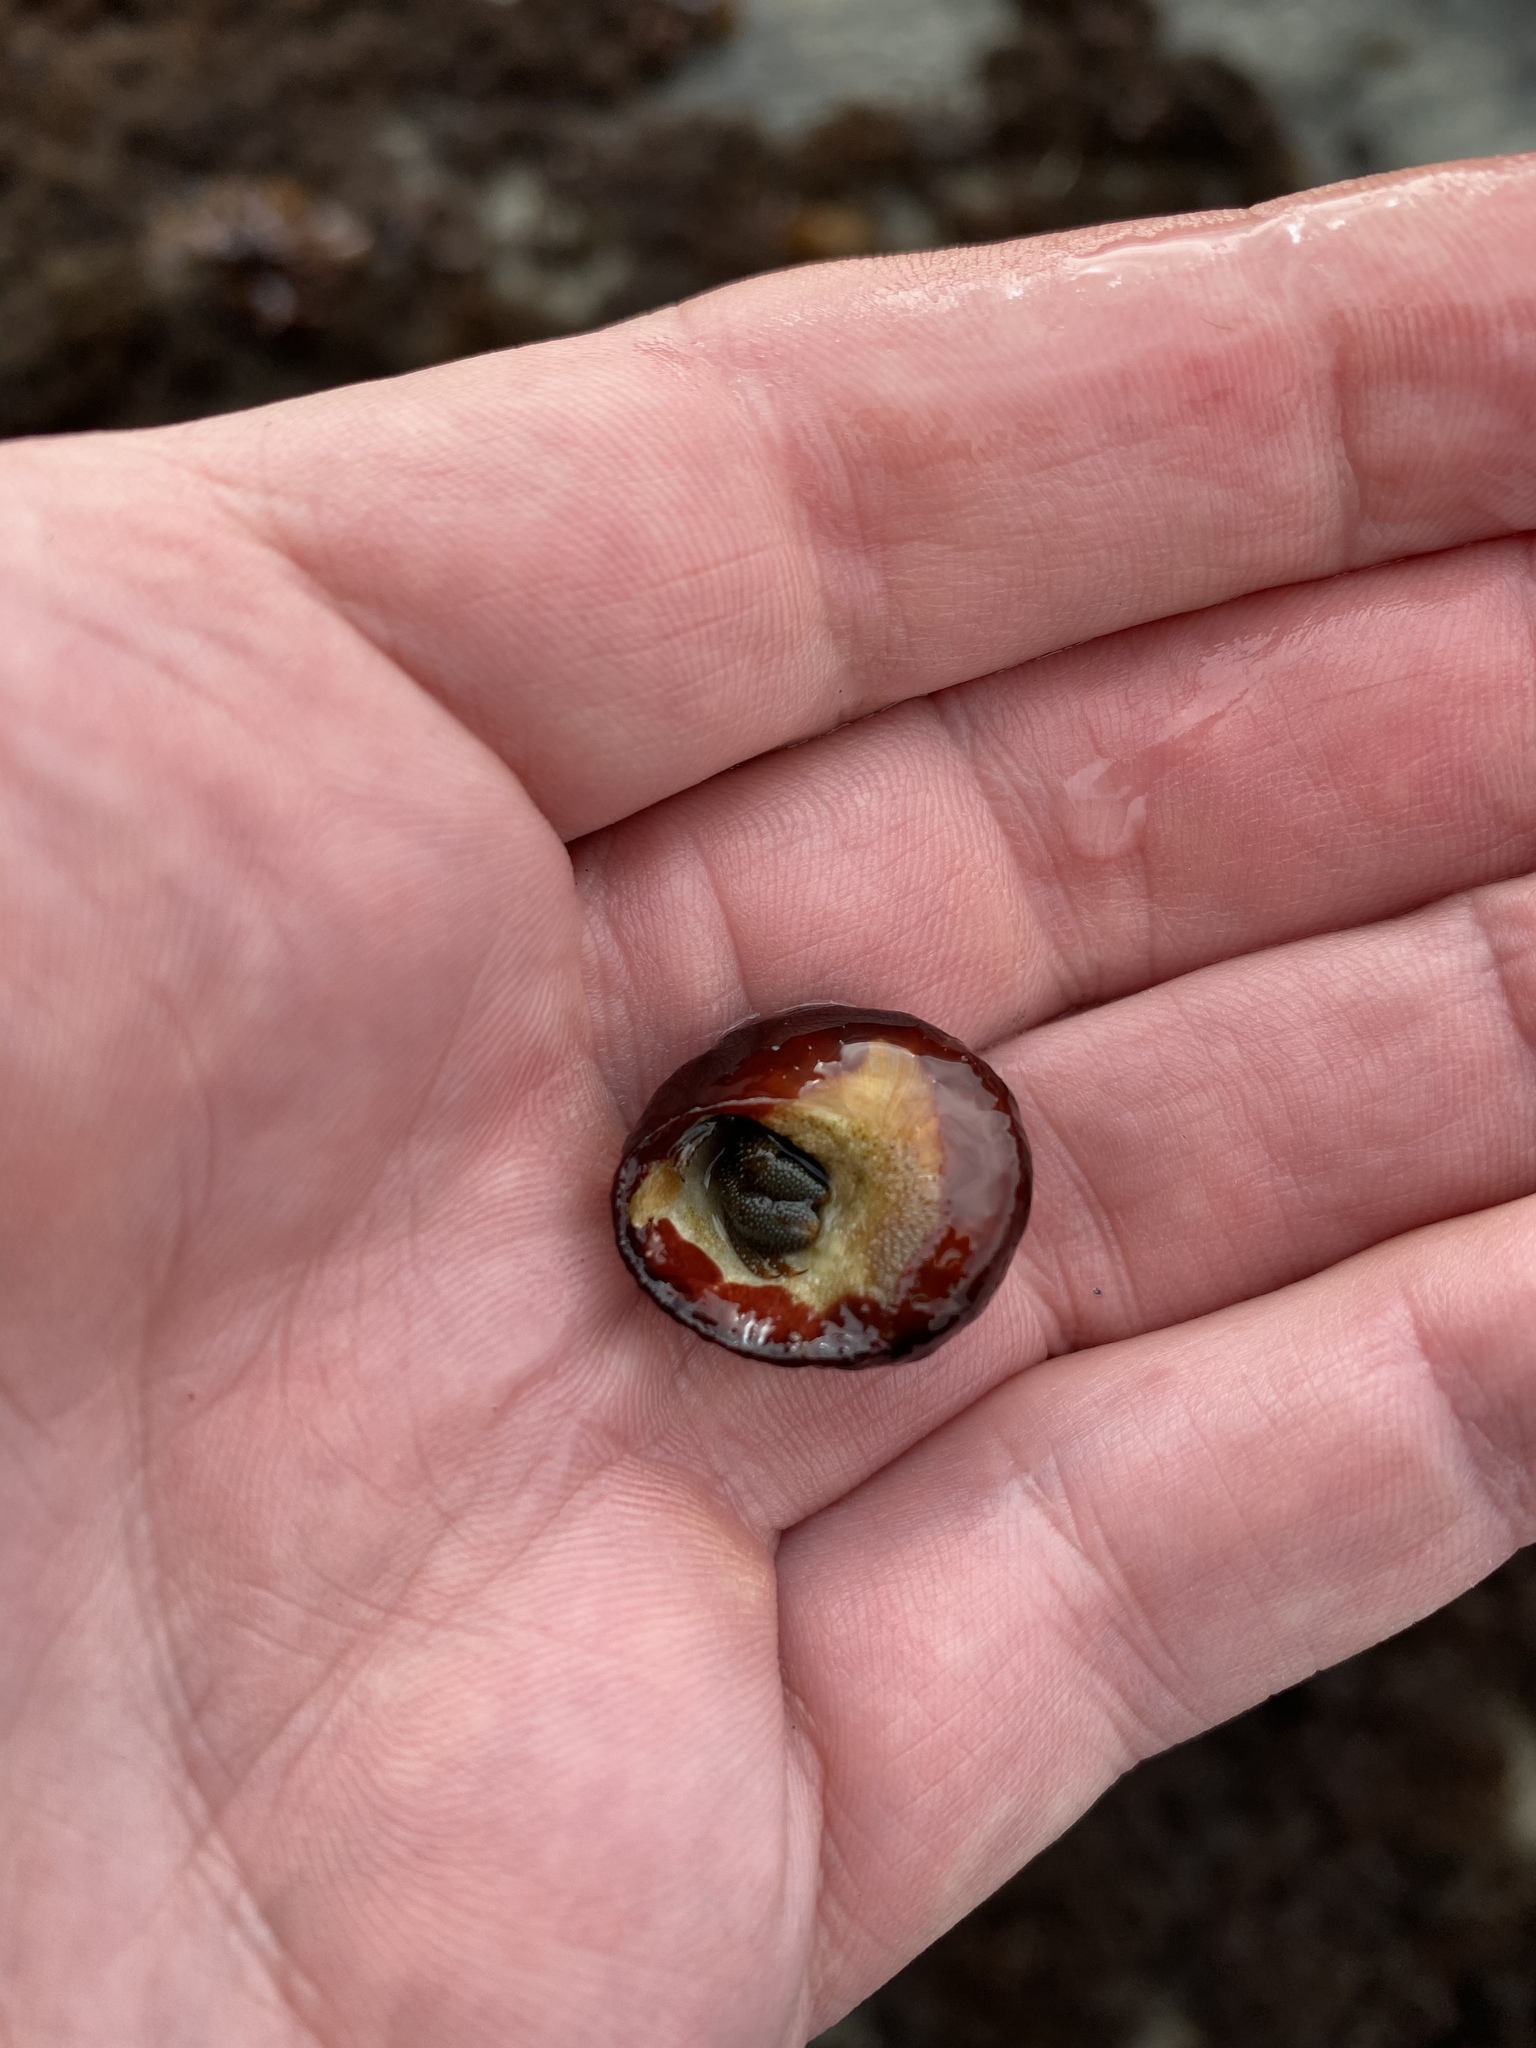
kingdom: Animalia
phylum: Arthropoda
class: Malacostraca
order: Decapoda
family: Paguridae
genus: Pagurus
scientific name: Pagurus granosimanus
